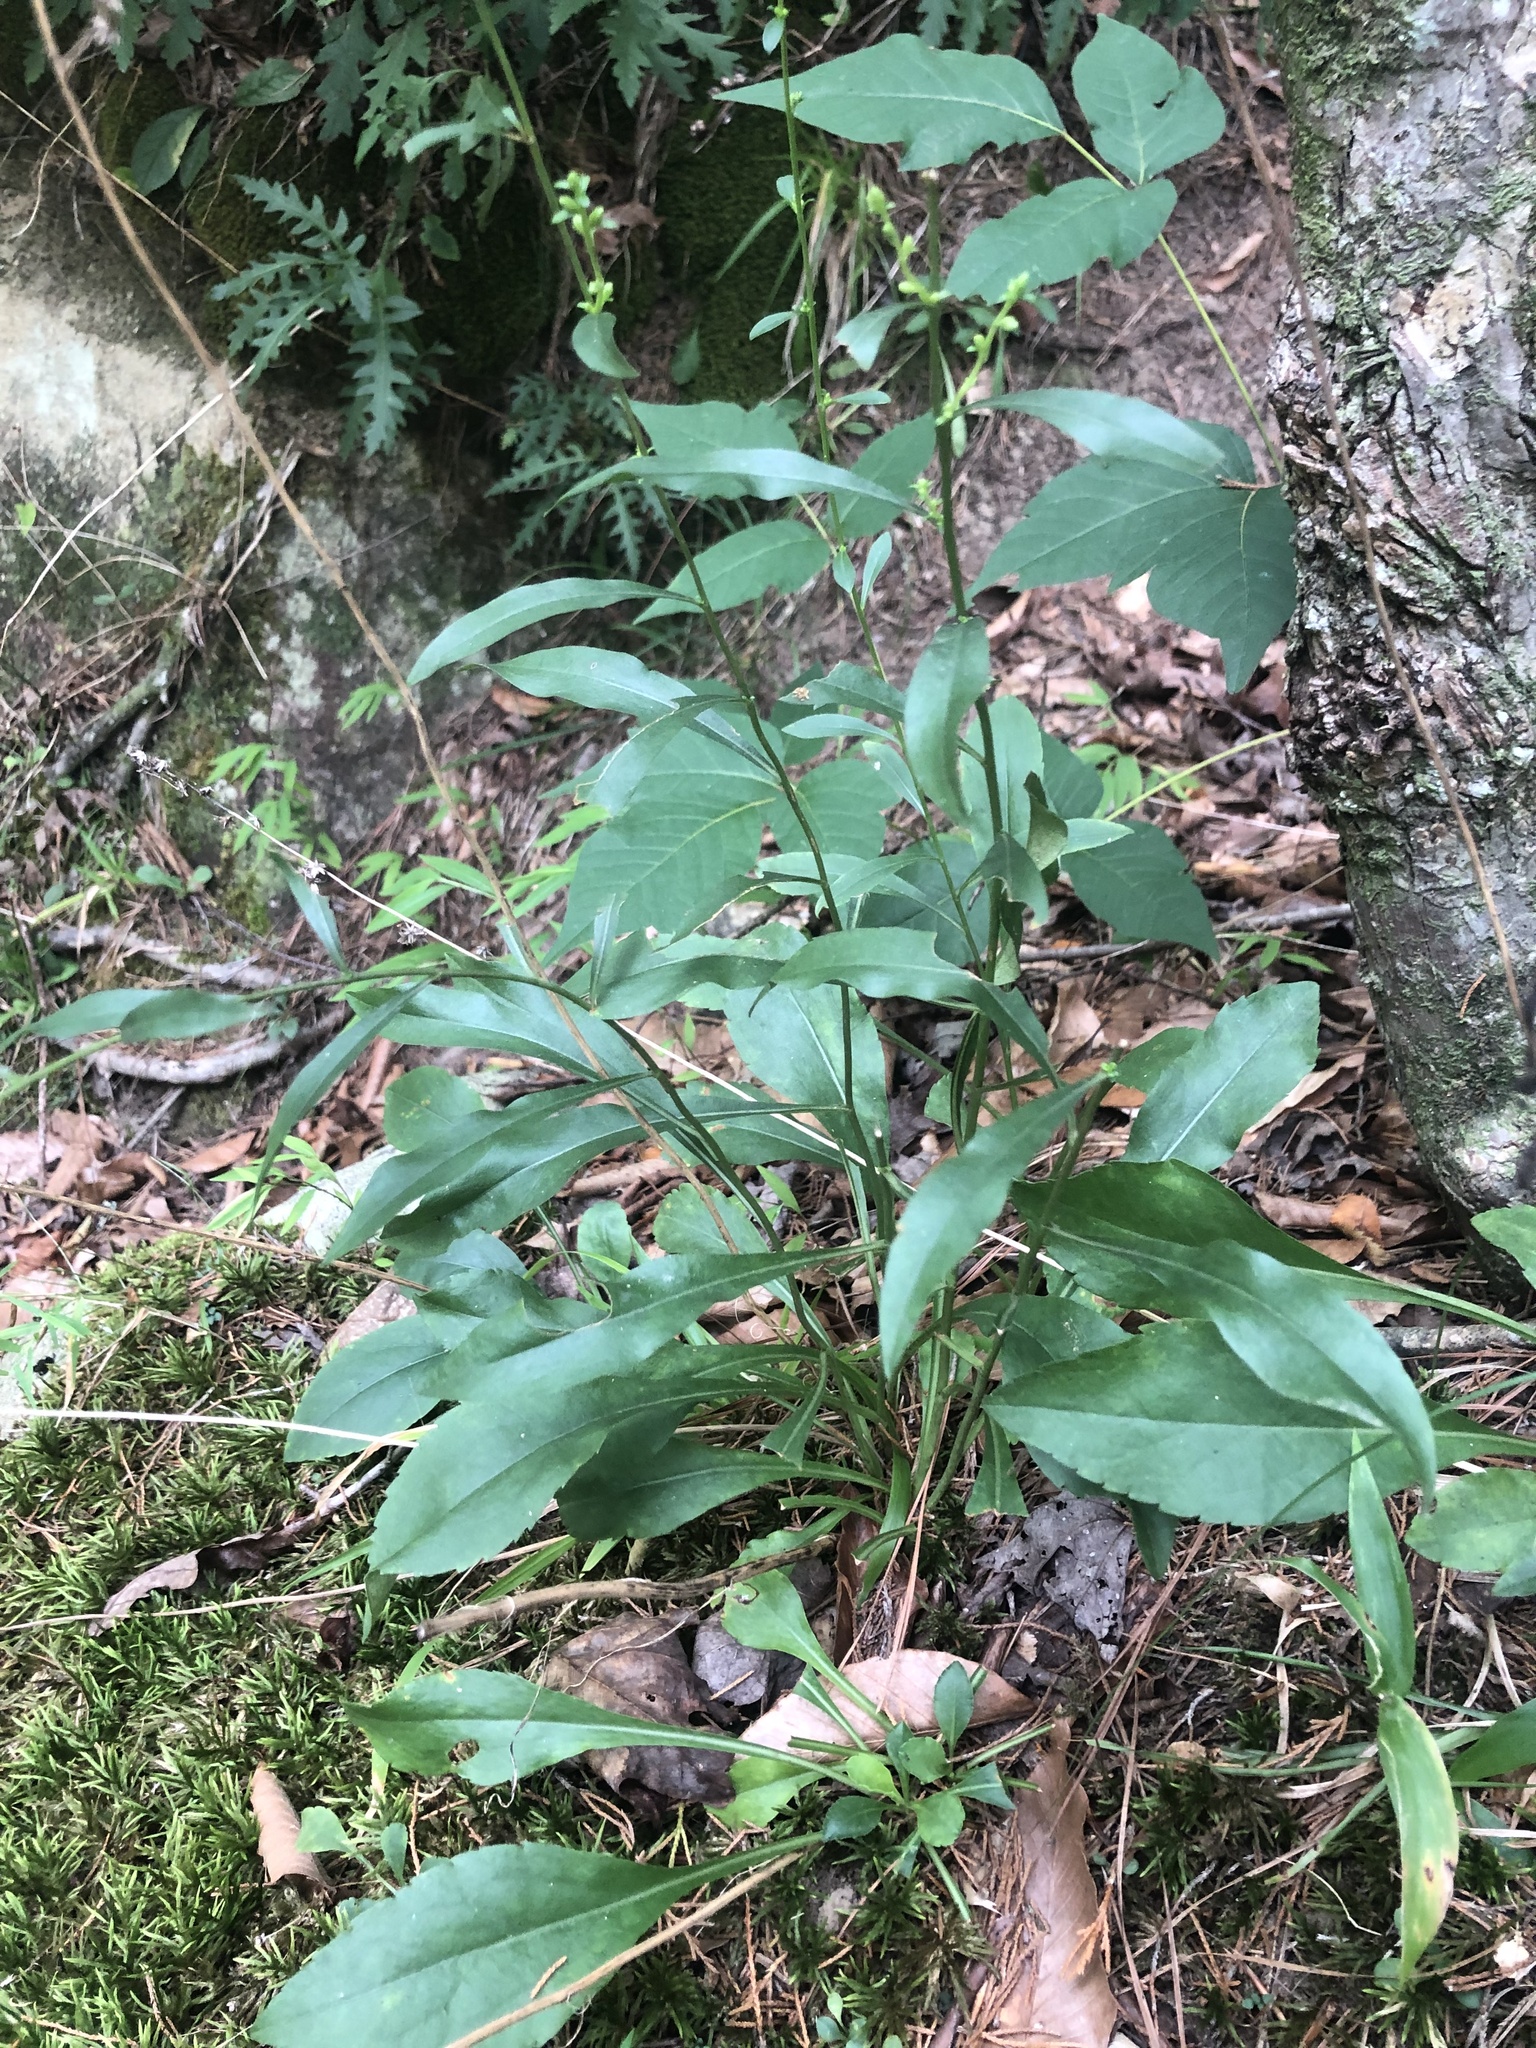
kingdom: Plantae
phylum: Tracheophyta
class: Magnoliopsida
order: Asterales
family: Asteraceae
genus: Solidago
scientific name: Solidago erecta
